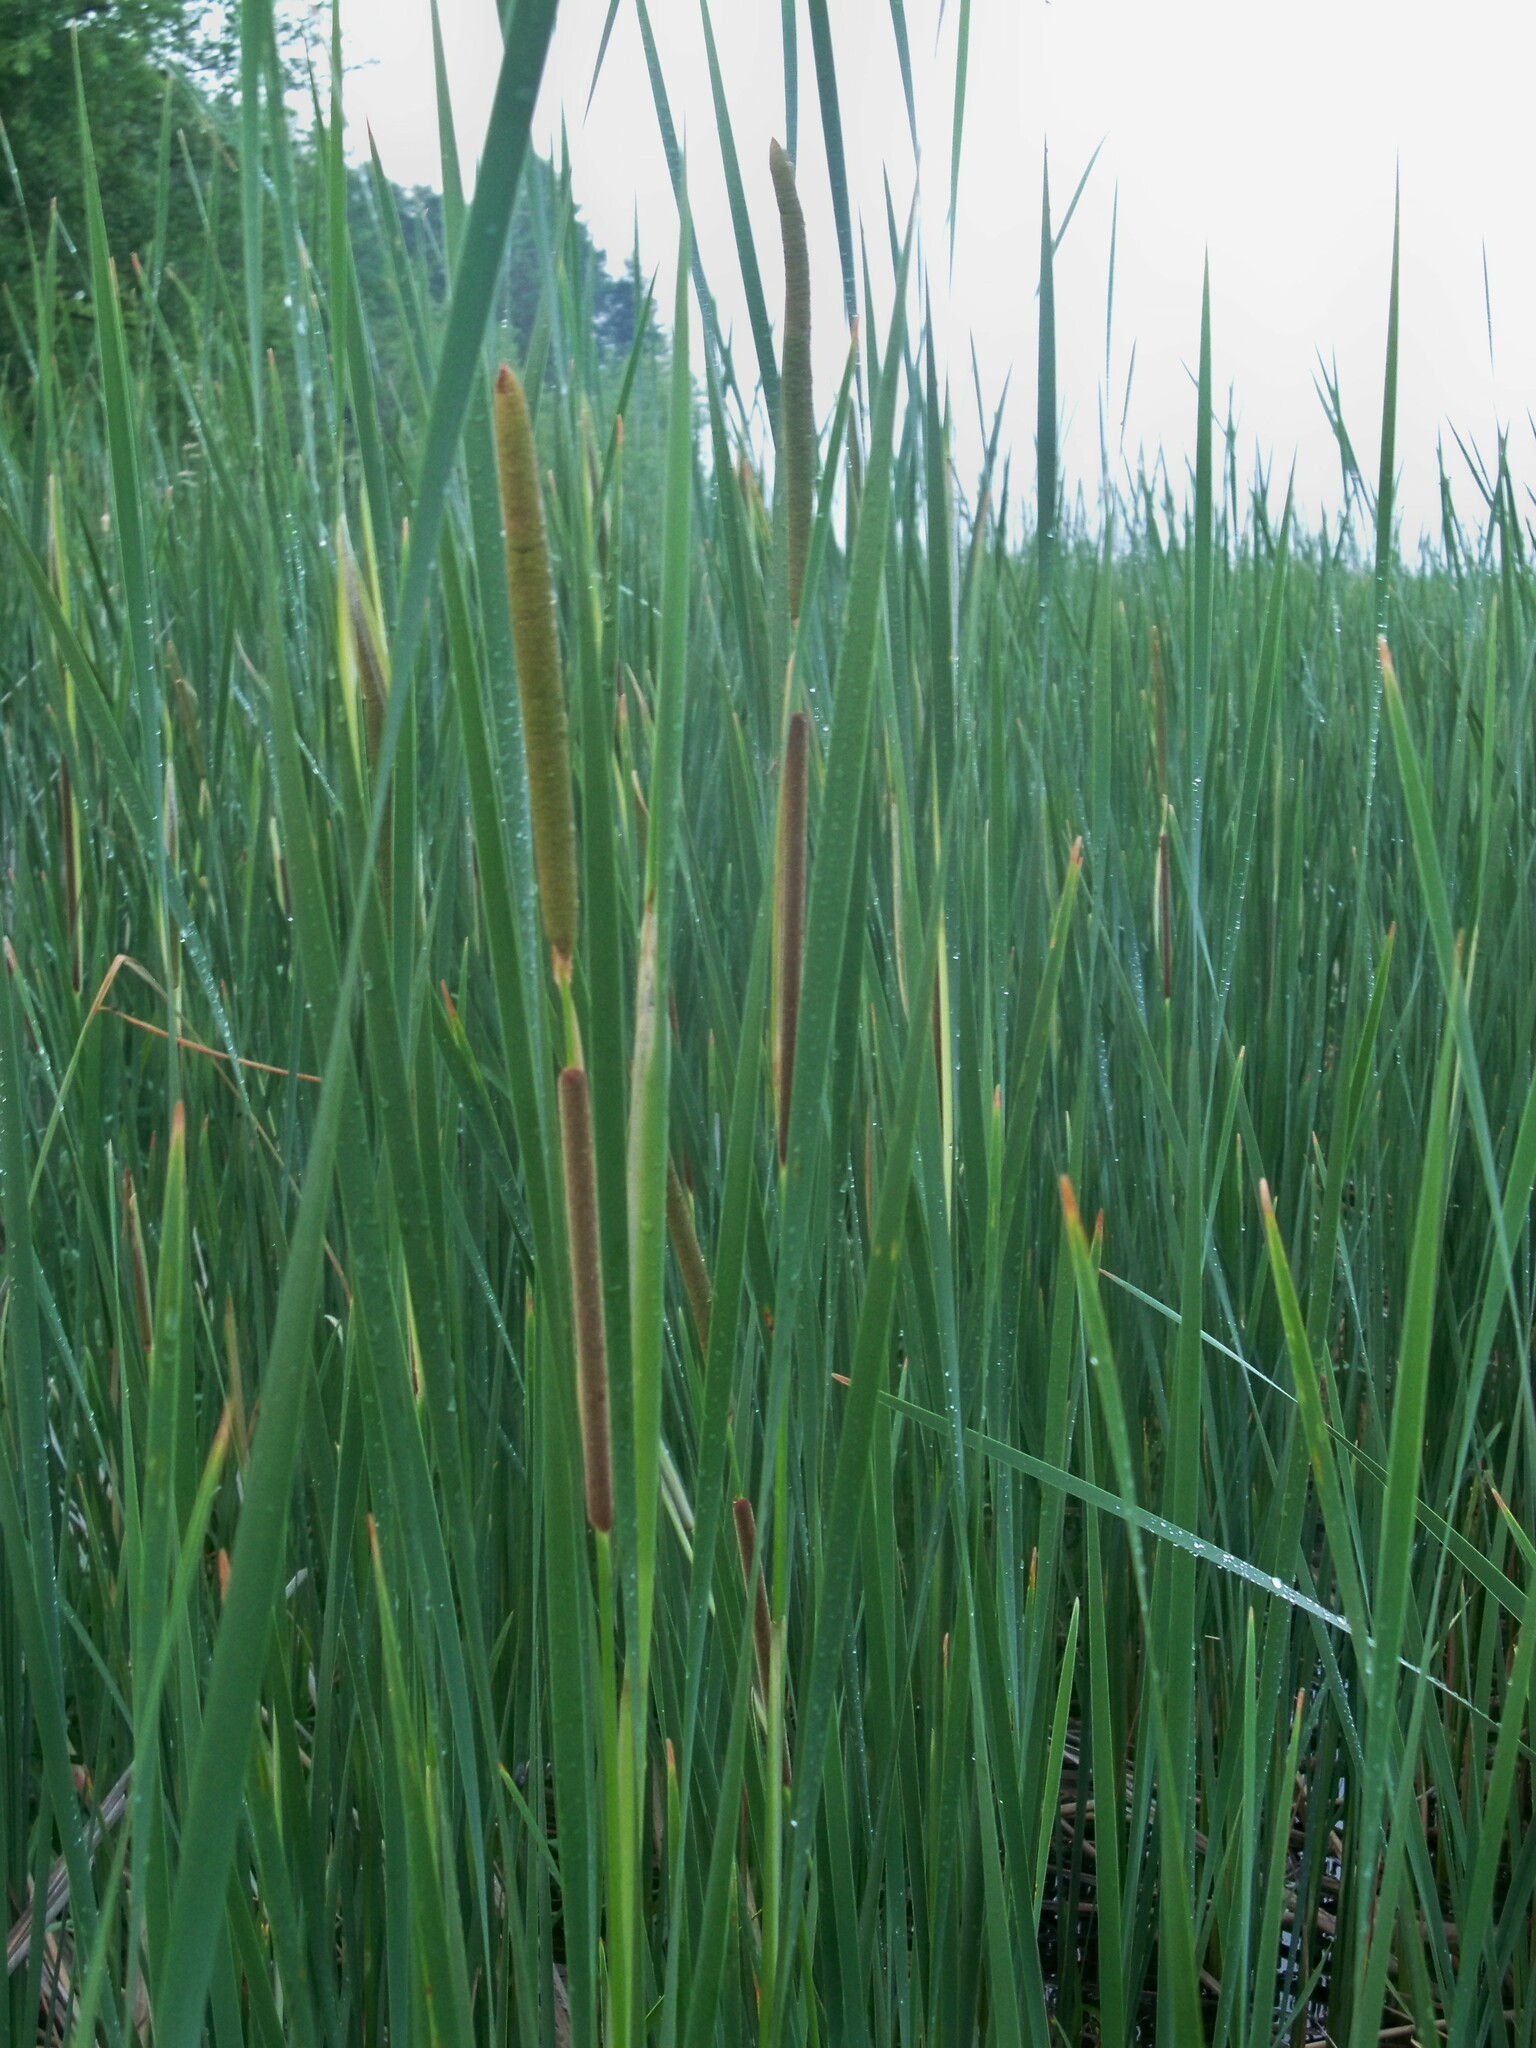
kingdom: Plantae
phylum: Tracheophyta
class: Liliopsida
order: Poales
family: Typhaceae
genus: Typha
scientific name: Typha angustifolia
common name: Lesser bulrush
